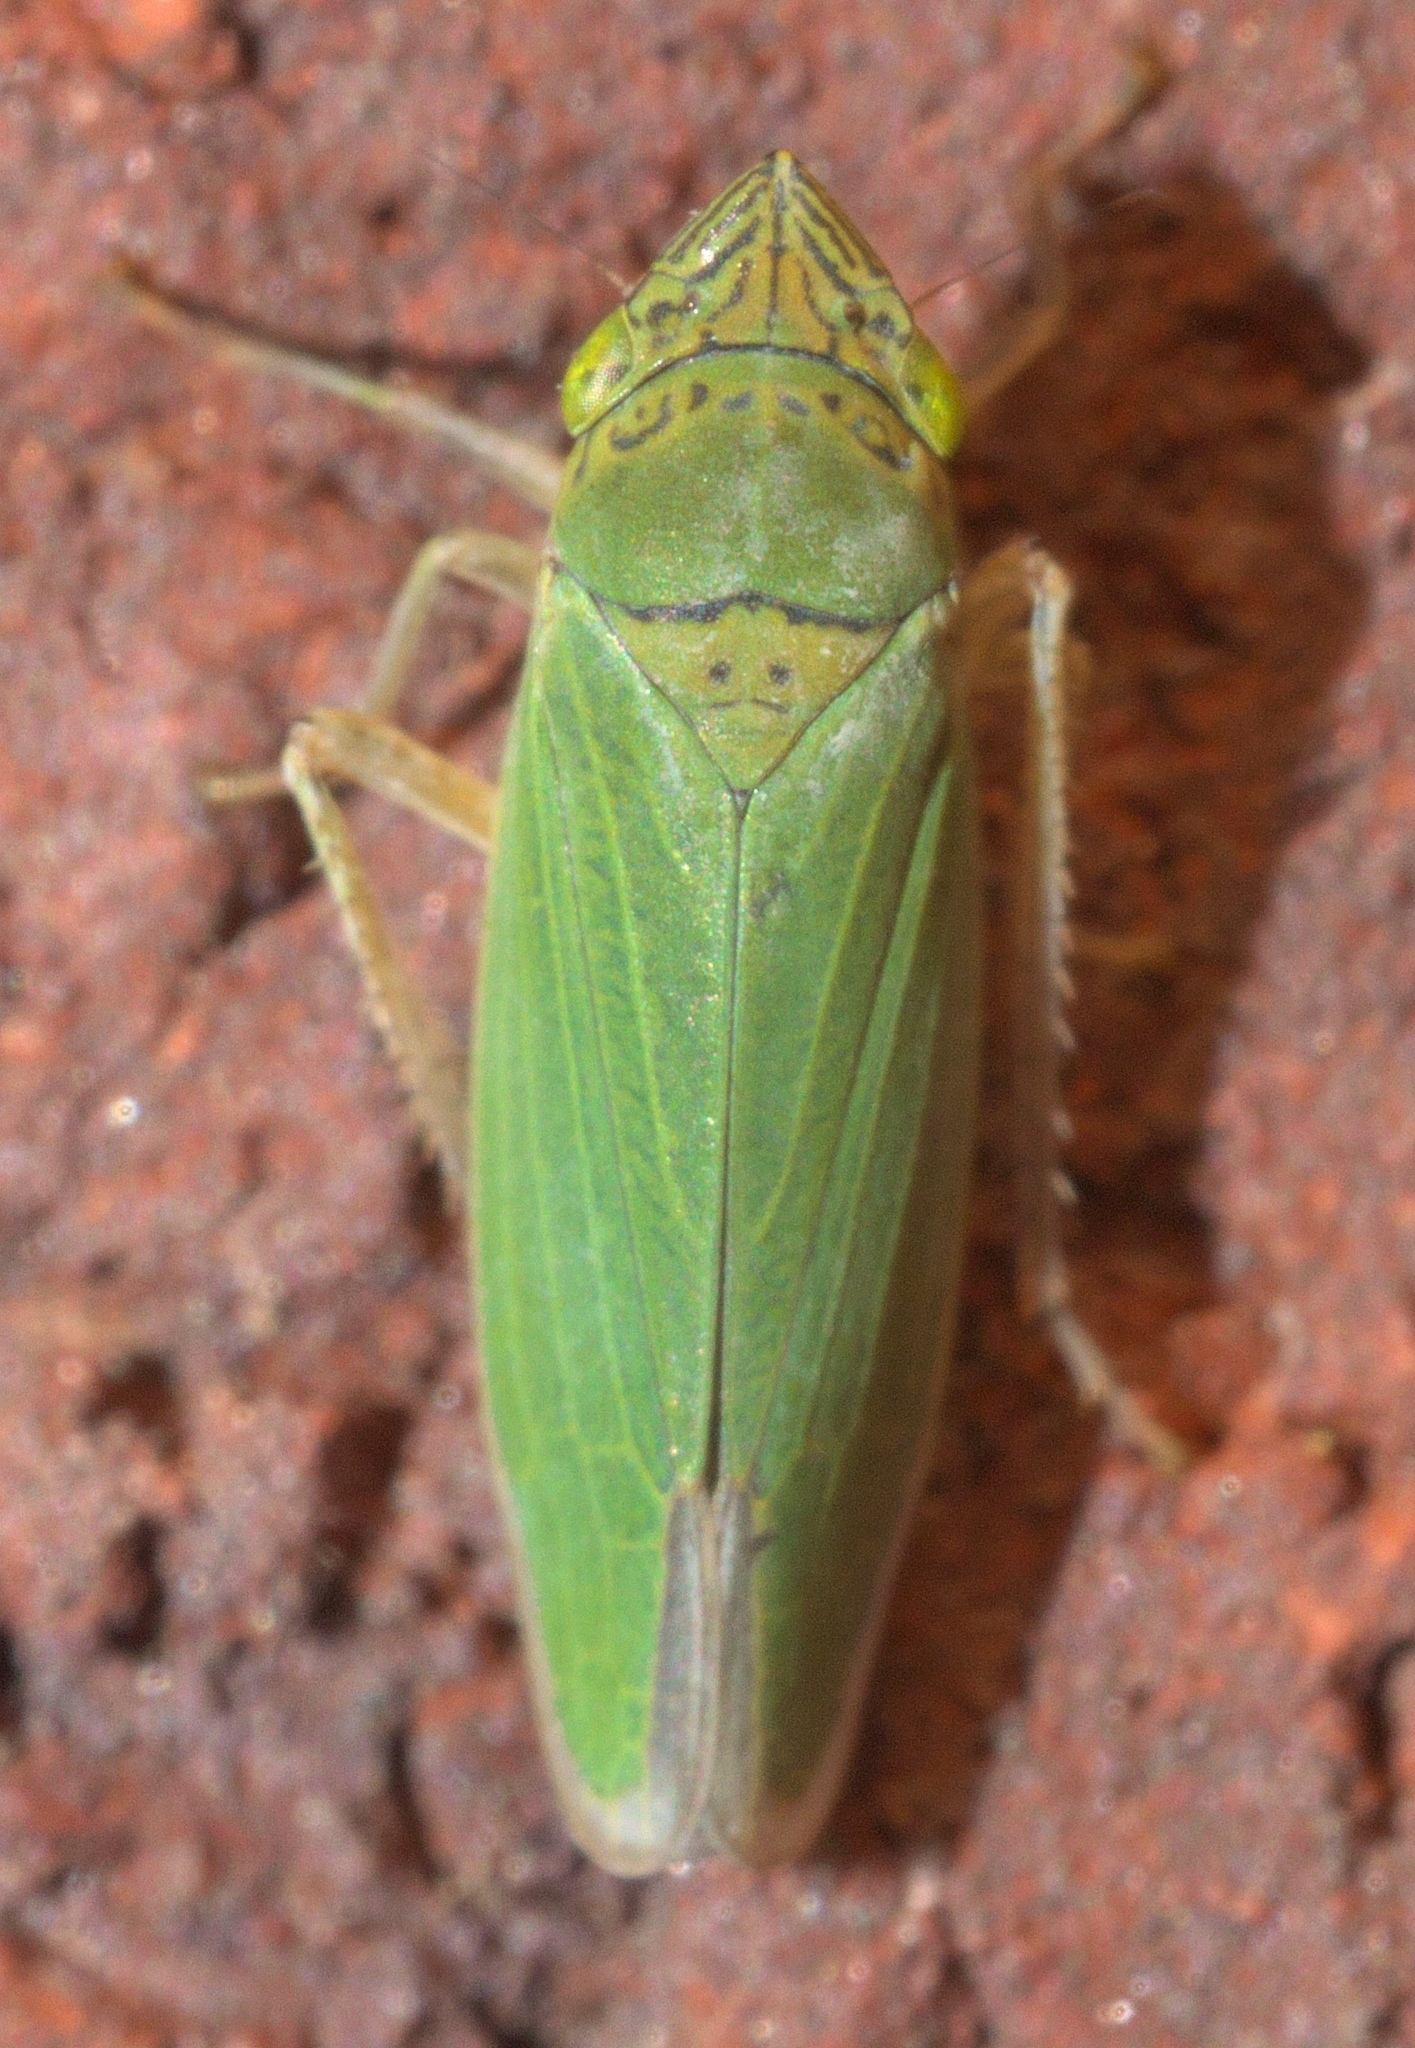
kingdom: Animalia
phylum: Arthropoda
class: Insecta
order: Hemiptera
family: Cicadellidae
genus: Draeculacephala
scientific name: Draeculacephala inscripta
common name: Leafhopper
